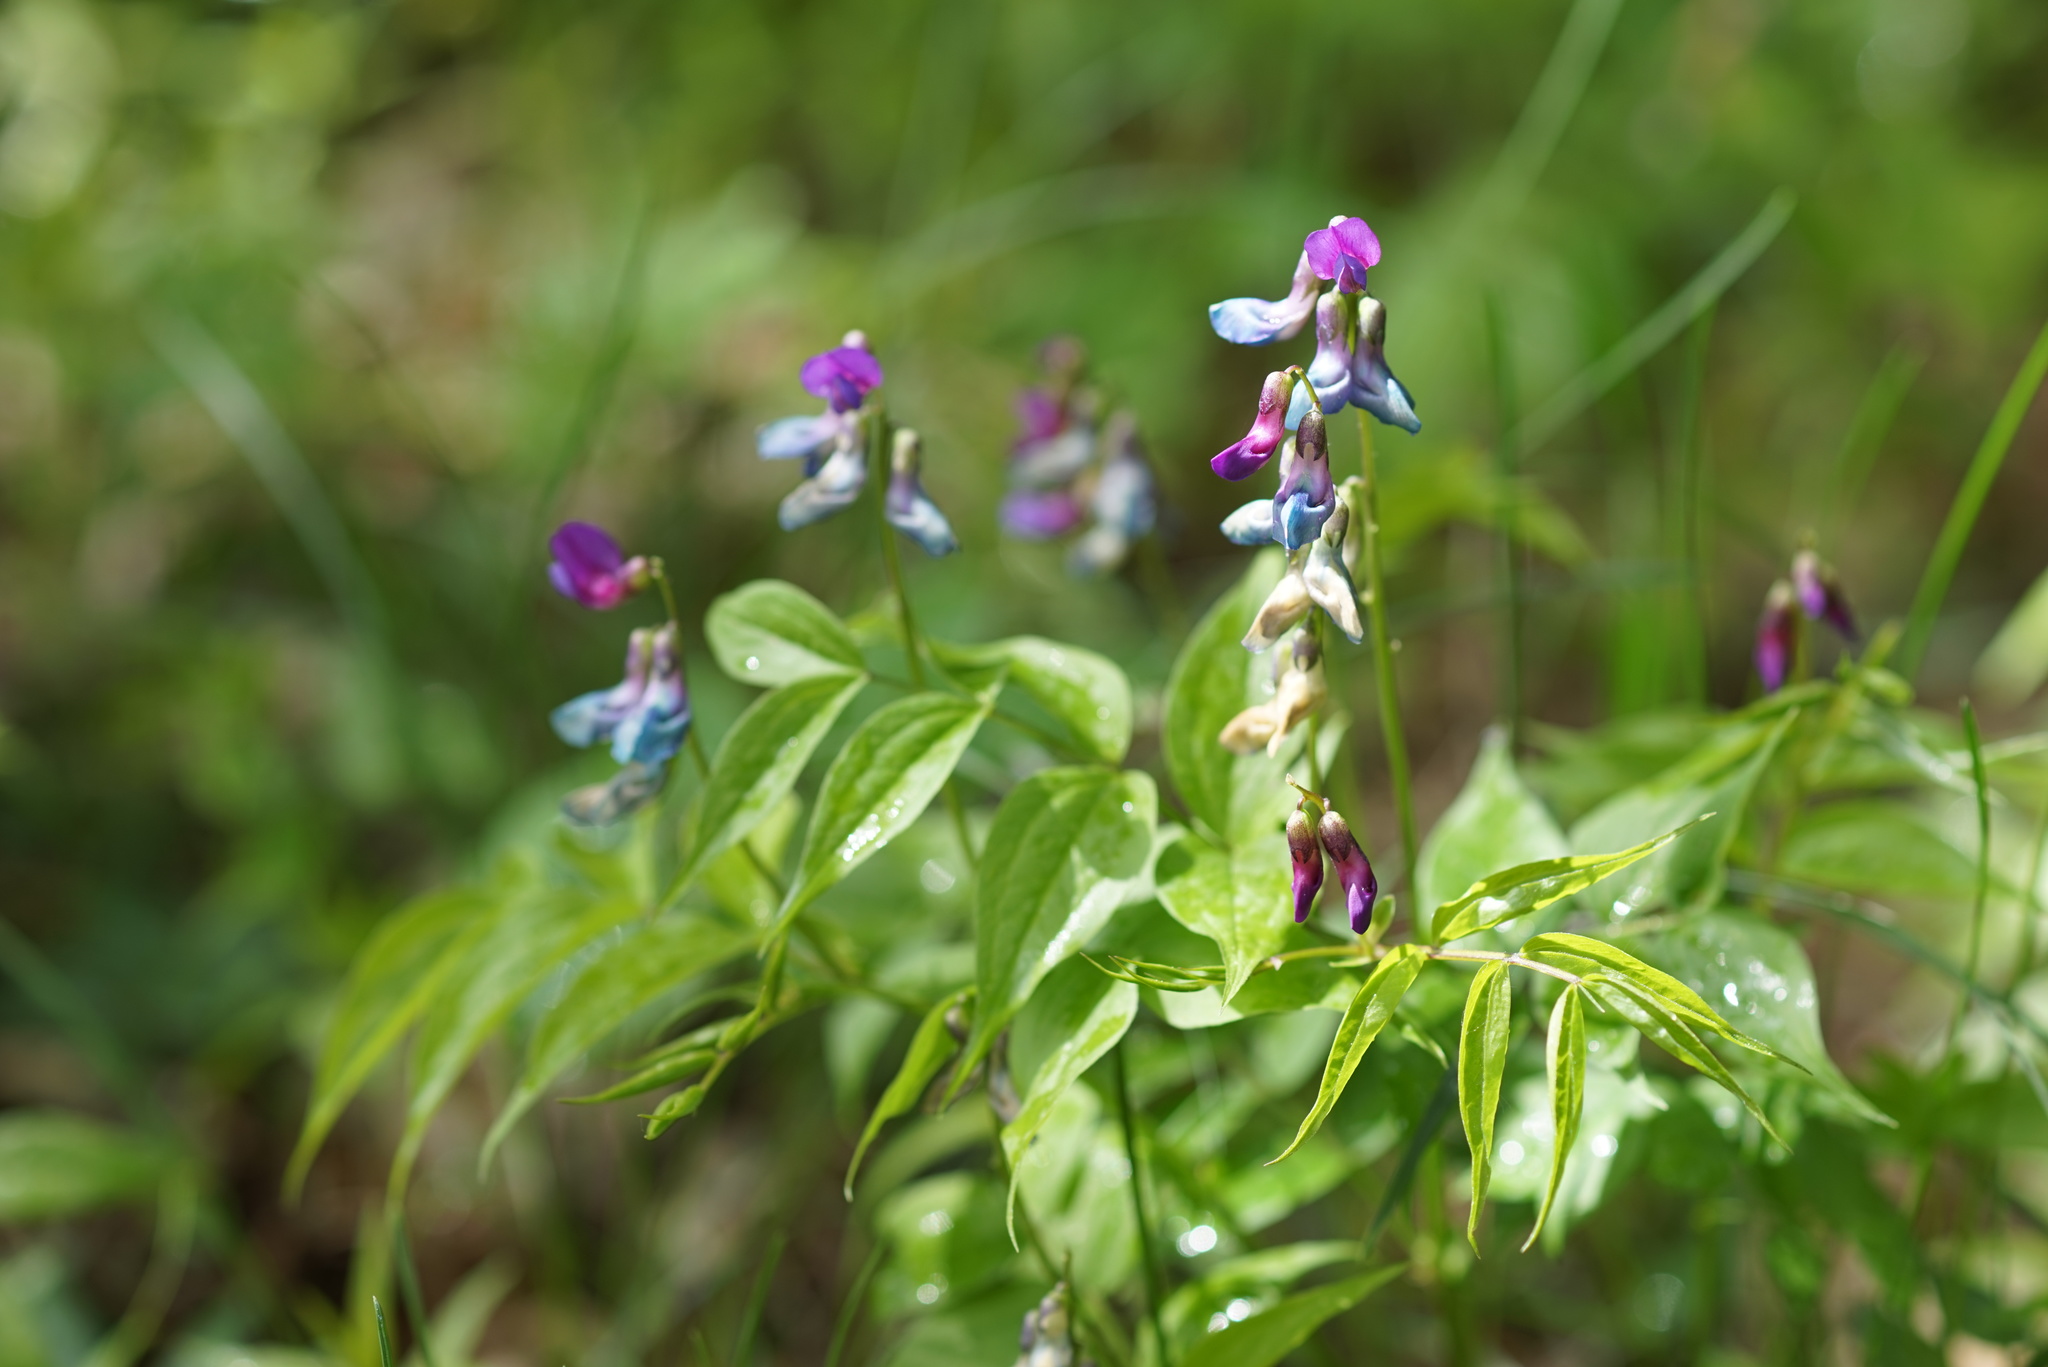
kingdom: Plantae
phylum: Tracheophyta
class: Magnoliopsida
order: Fabales
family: Fabaceae
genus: Lathyrus
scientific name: Lathyrus vernus
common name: Spring pea
